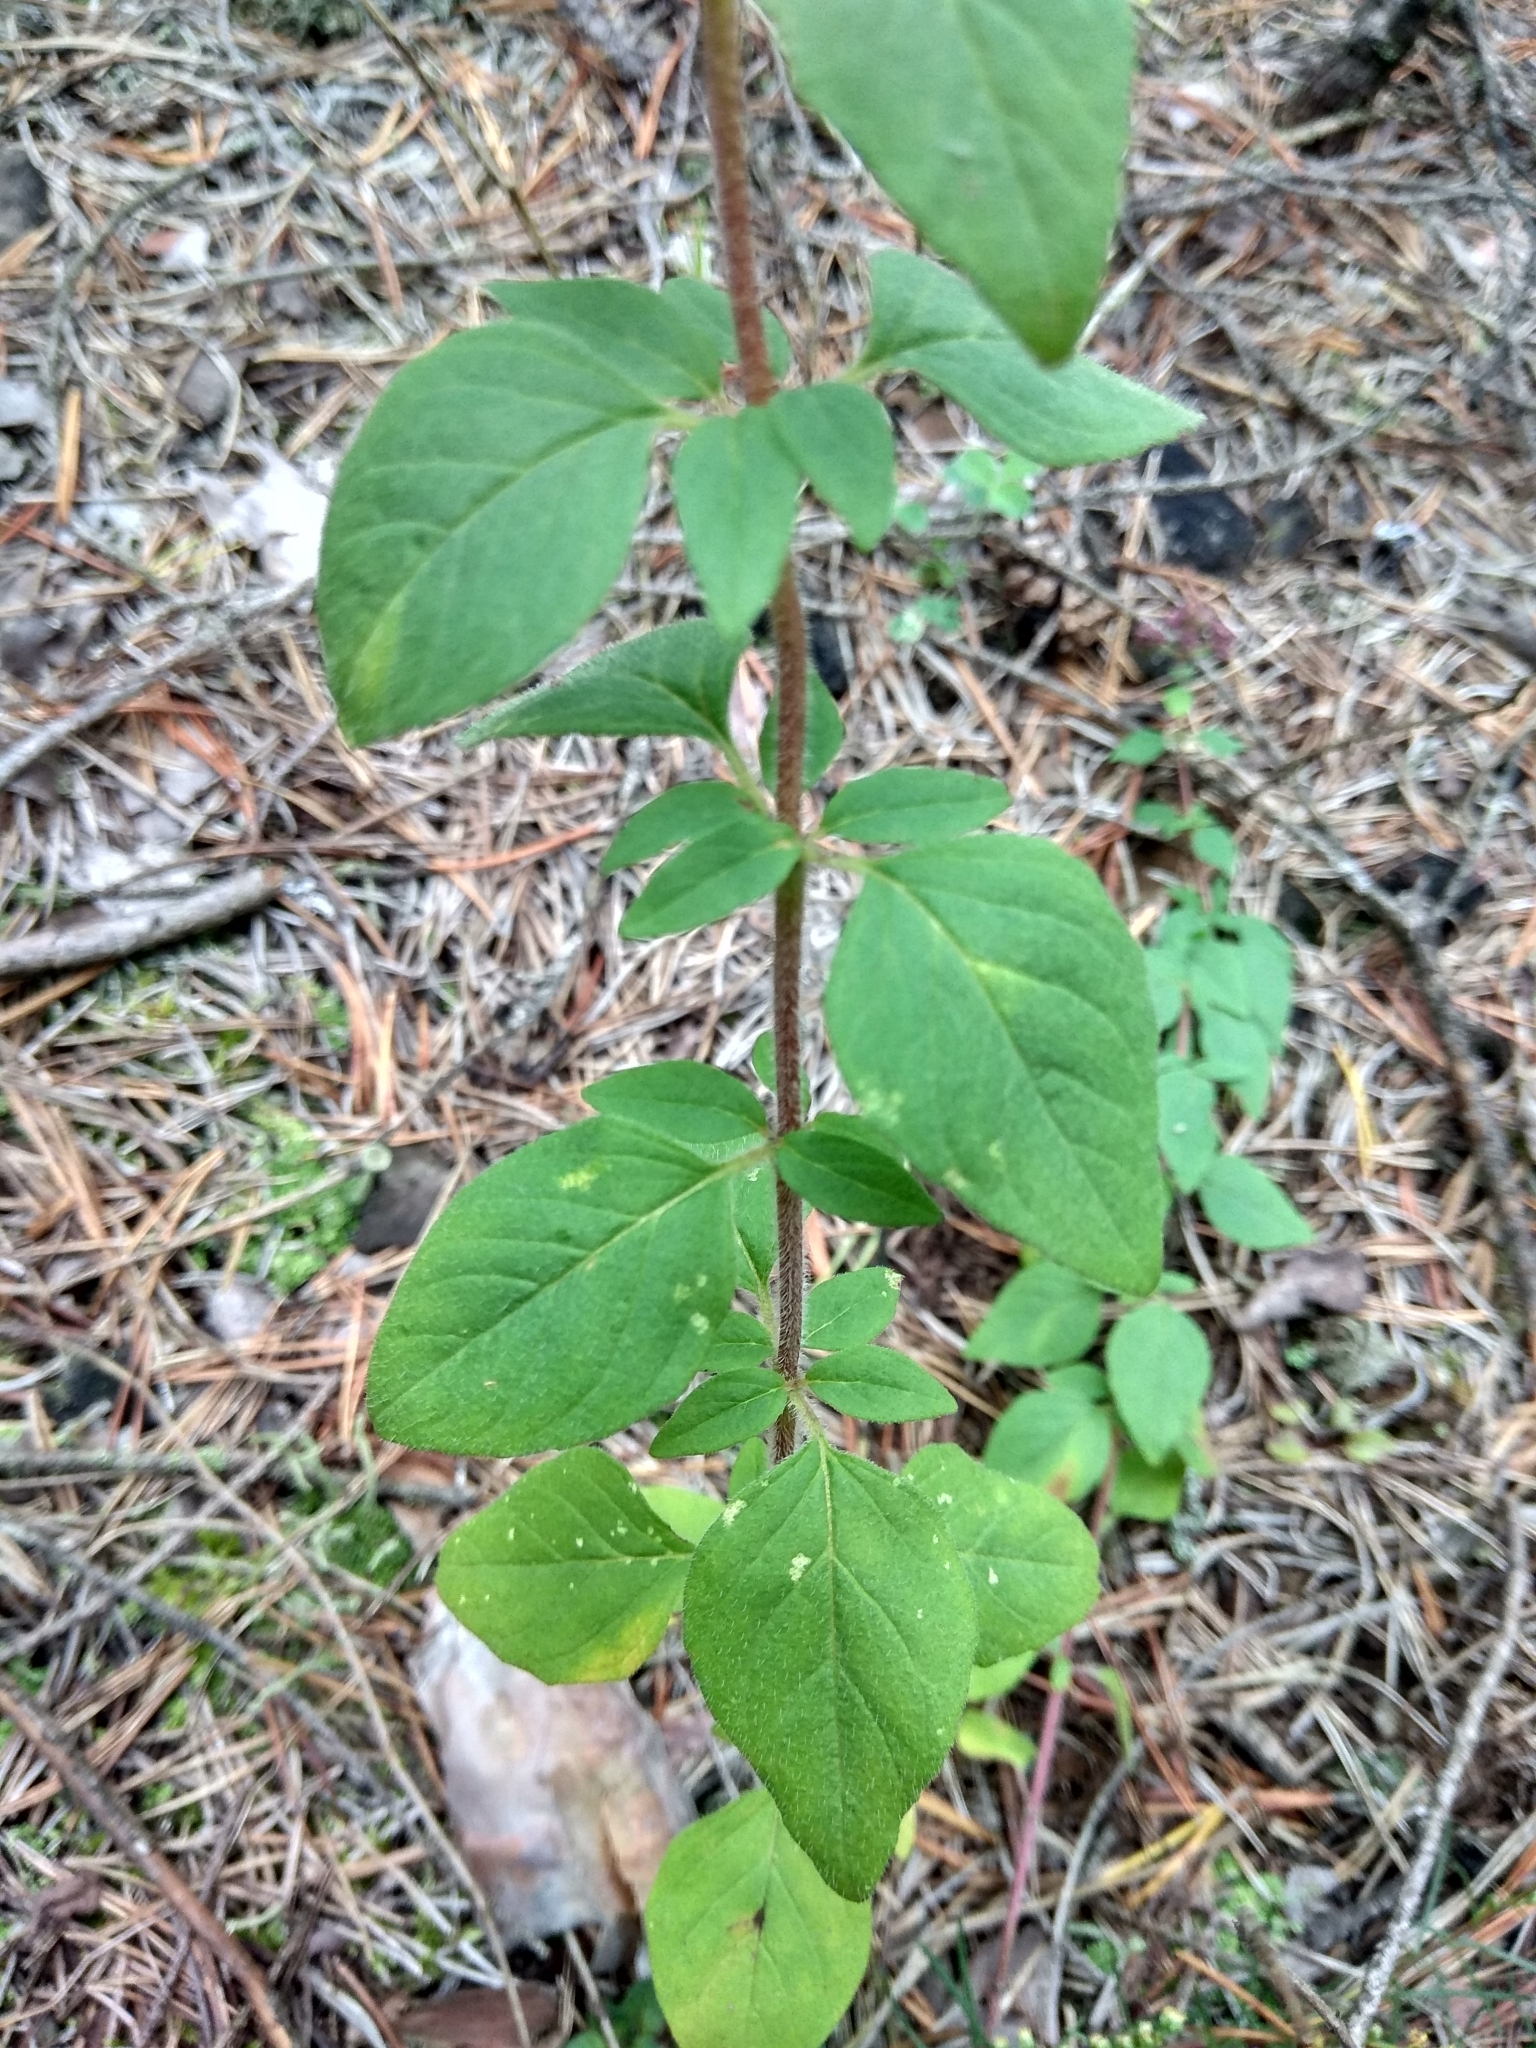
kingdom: Plantae
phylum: Tracheophyta
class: Magnoliopsida
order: Lamiales
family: Lamiaceae
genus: Origanum
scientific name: Origanum vulgare
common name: Wild marjoram
